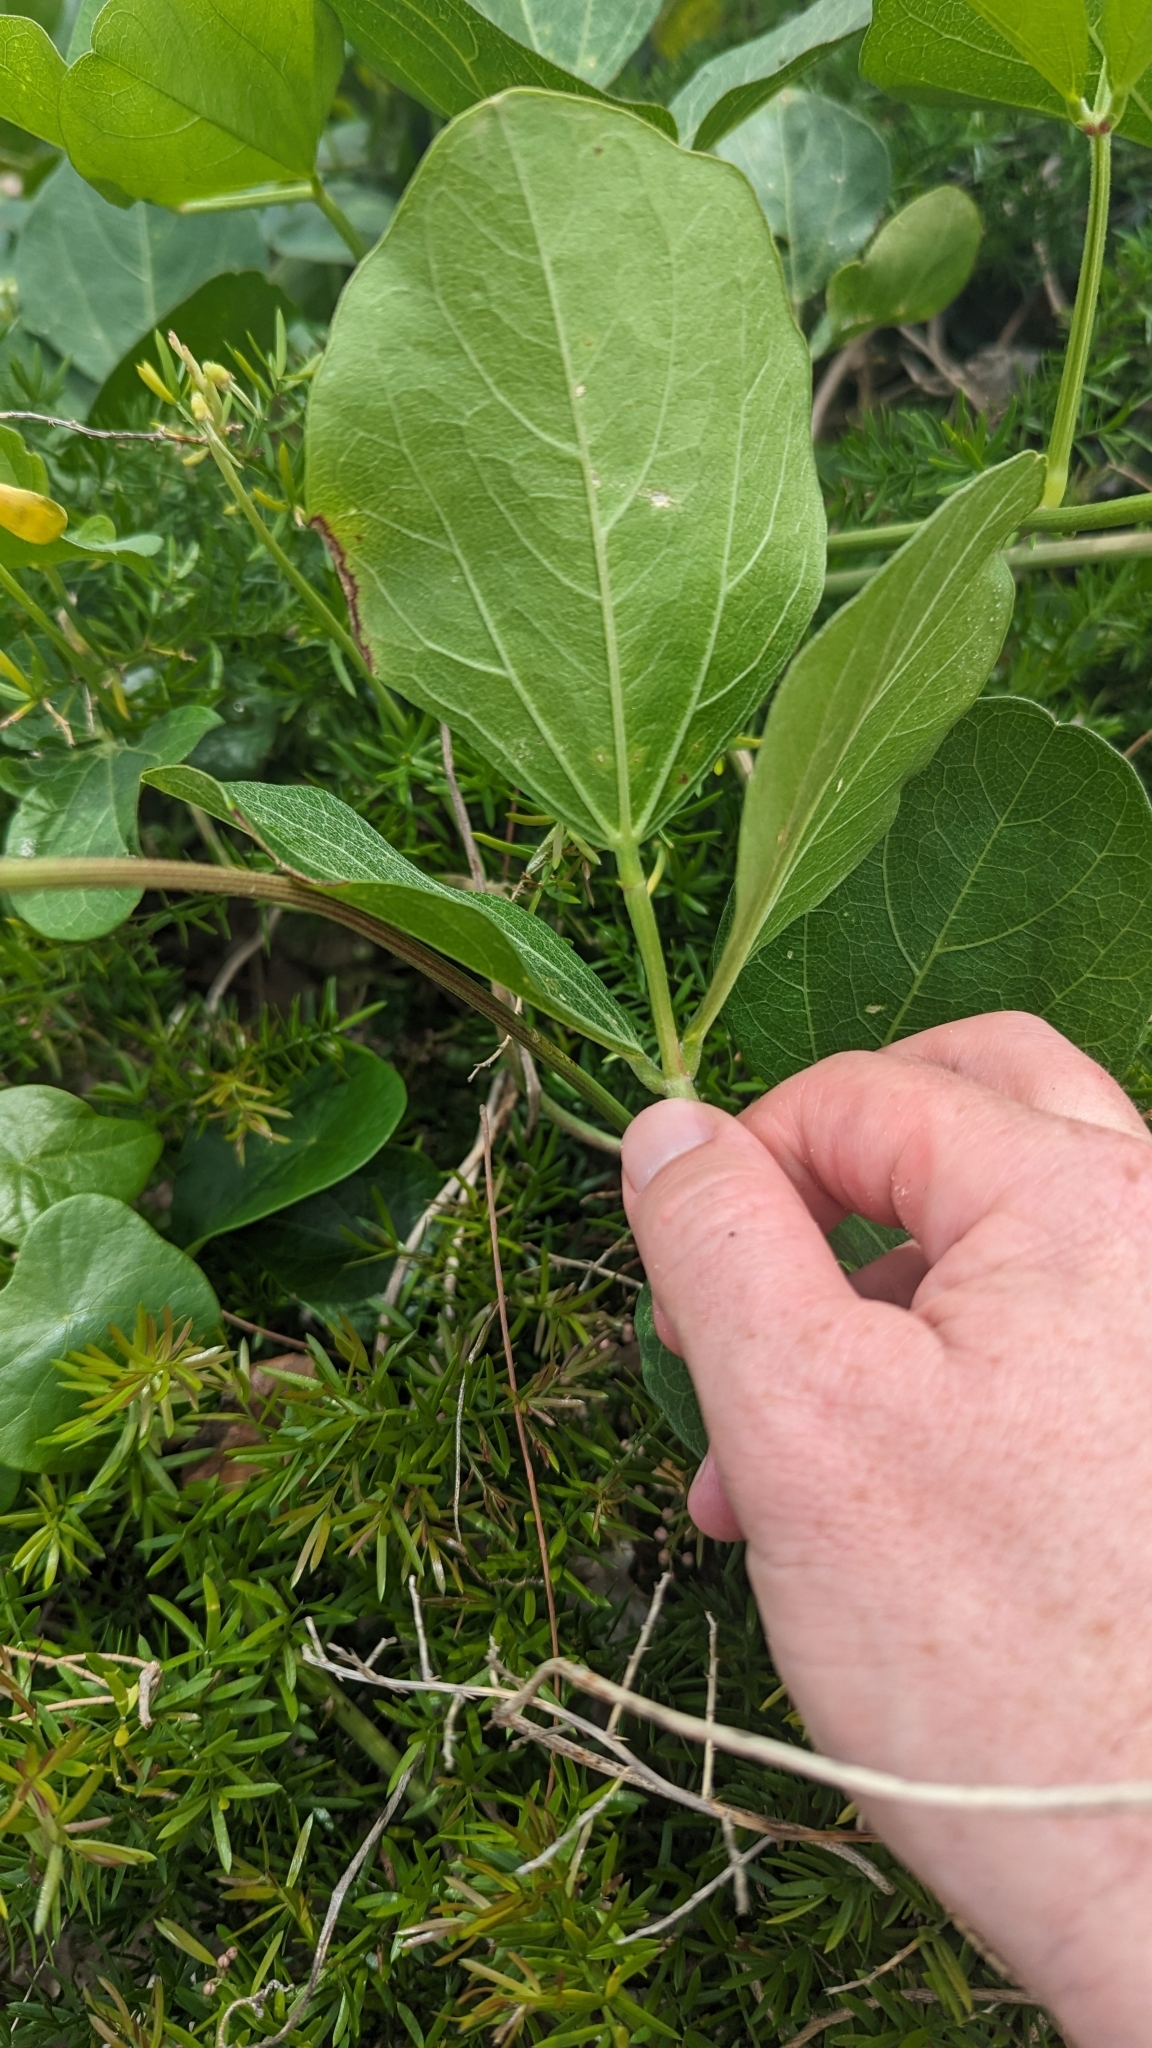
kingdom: Plantae
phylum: Tracheophyta
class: Magnoliopsida
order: Fabales
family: Fabaceae
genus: Vigna
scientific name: Vigna marina
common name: Dune-bean
